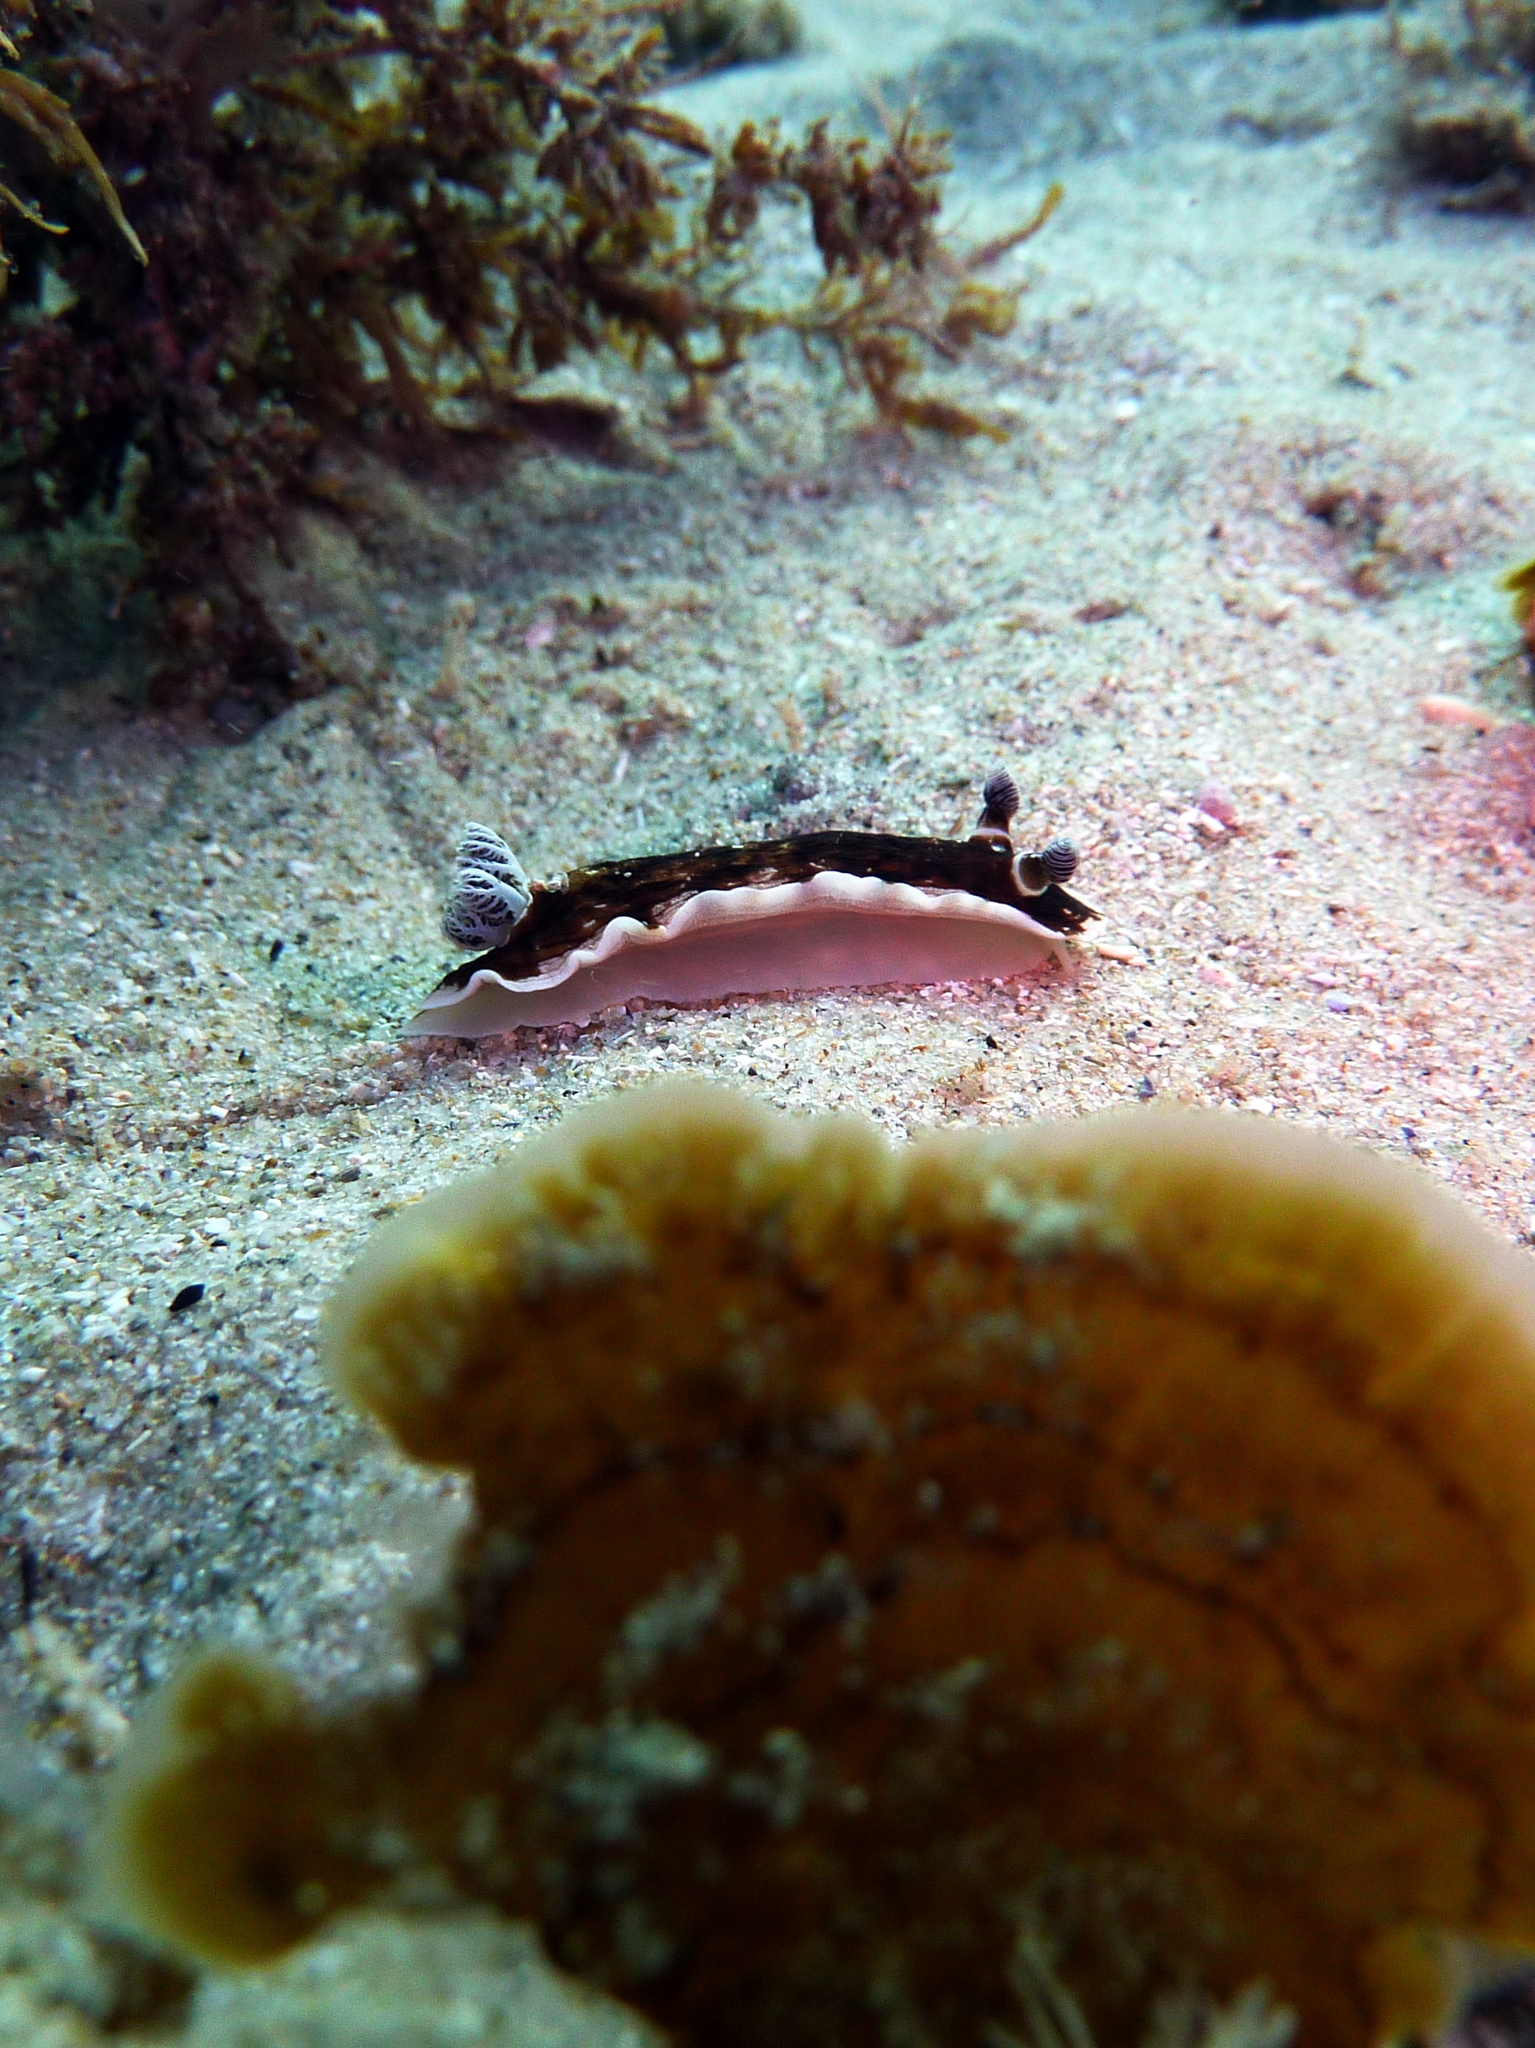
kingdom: Animalia
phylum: Mollusca
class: Gastropoda
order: Nudibranchia
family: Dorididae
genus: Aphelodoris
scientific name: Aphelodoris varia
